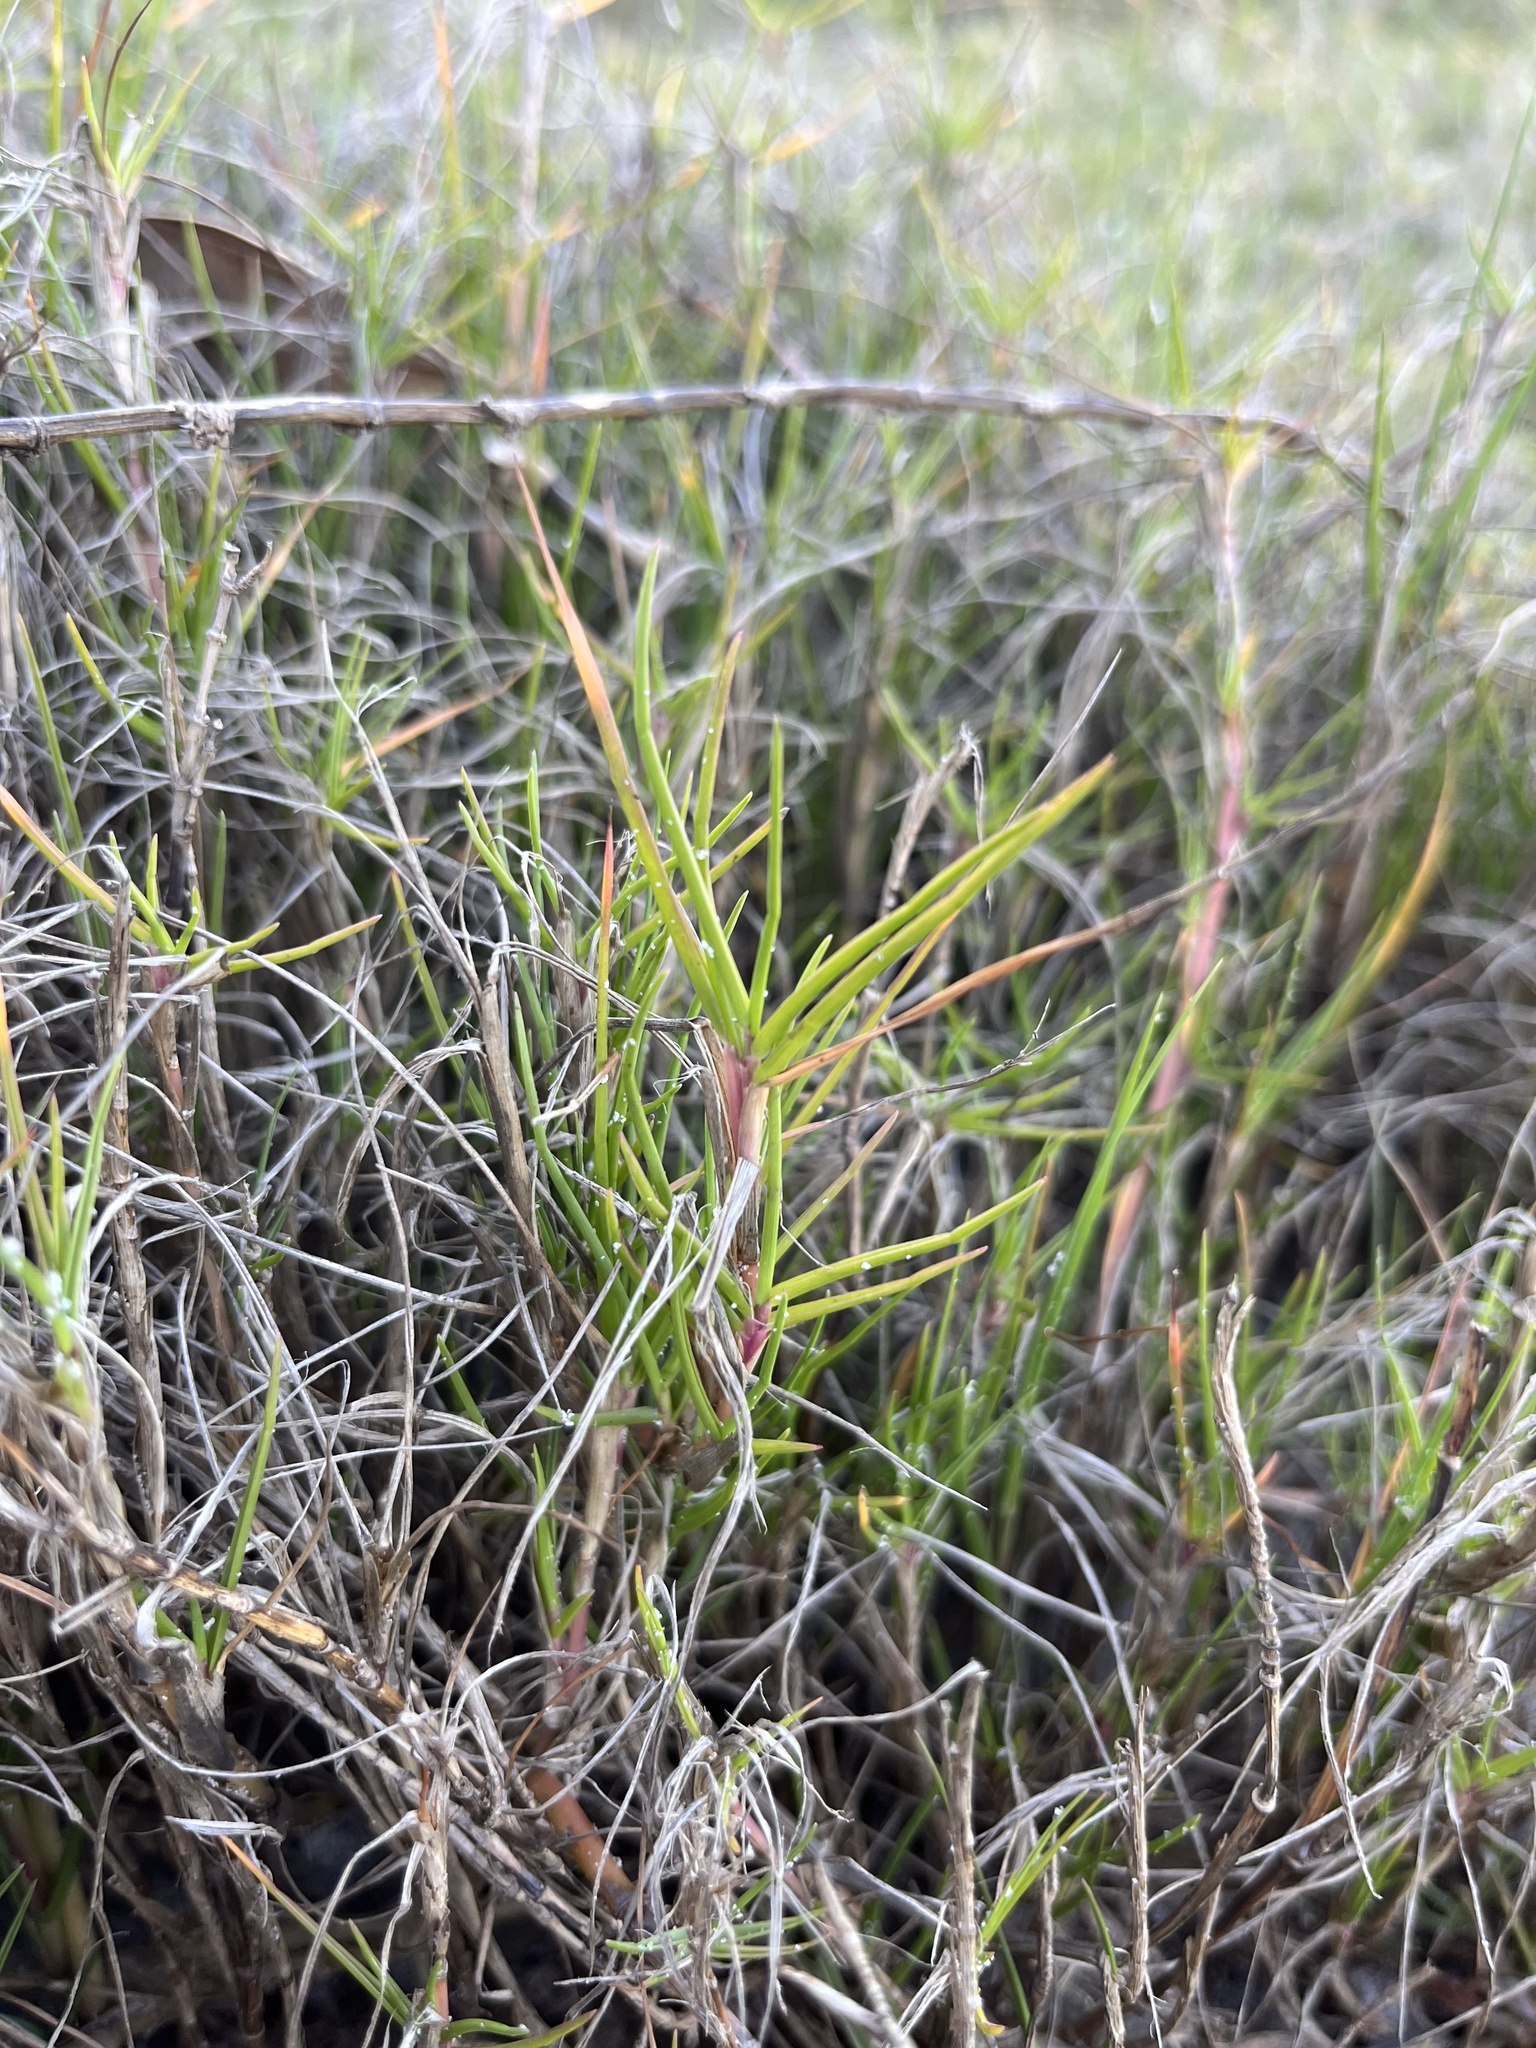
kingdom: Plantae
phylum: Tracheophyta
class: Liliopsida
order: Poales
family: Poaceae
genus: Paspalum
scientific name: Paspalum vaginatum
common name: Seashore paspalum
